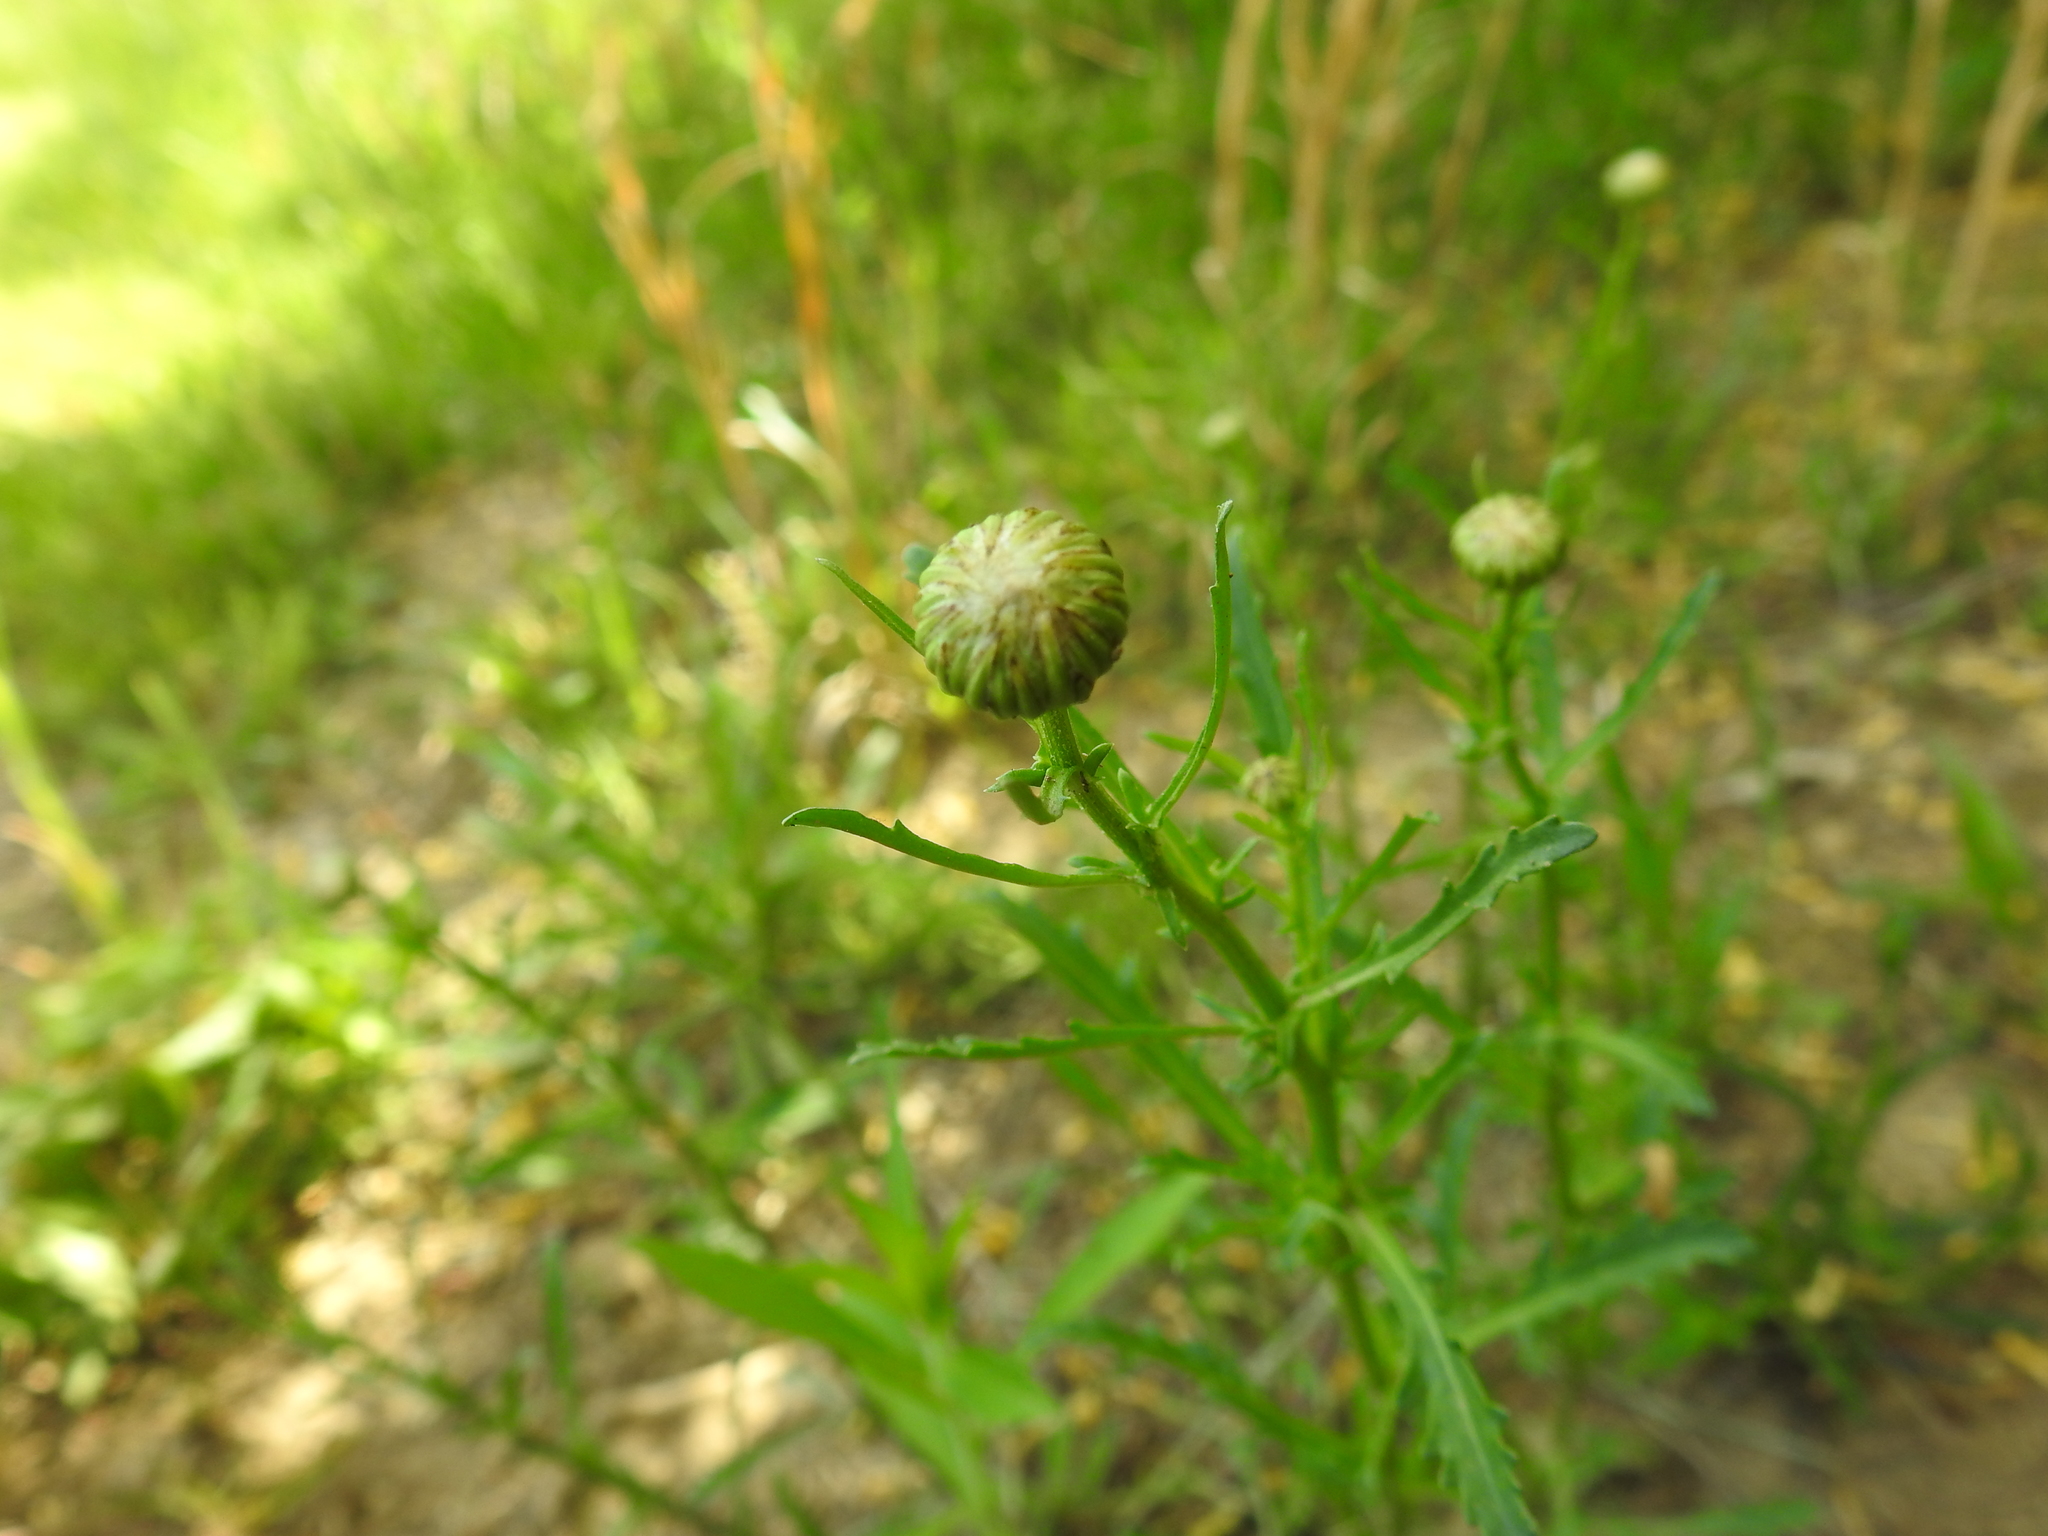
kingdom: Plantae
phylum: Tracheophyta
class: Magnoliopsida
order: Asterales
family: Asteraceae
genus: Leucanthemum
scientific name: Leucanthemum vulgare
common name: Oxeye daisy
